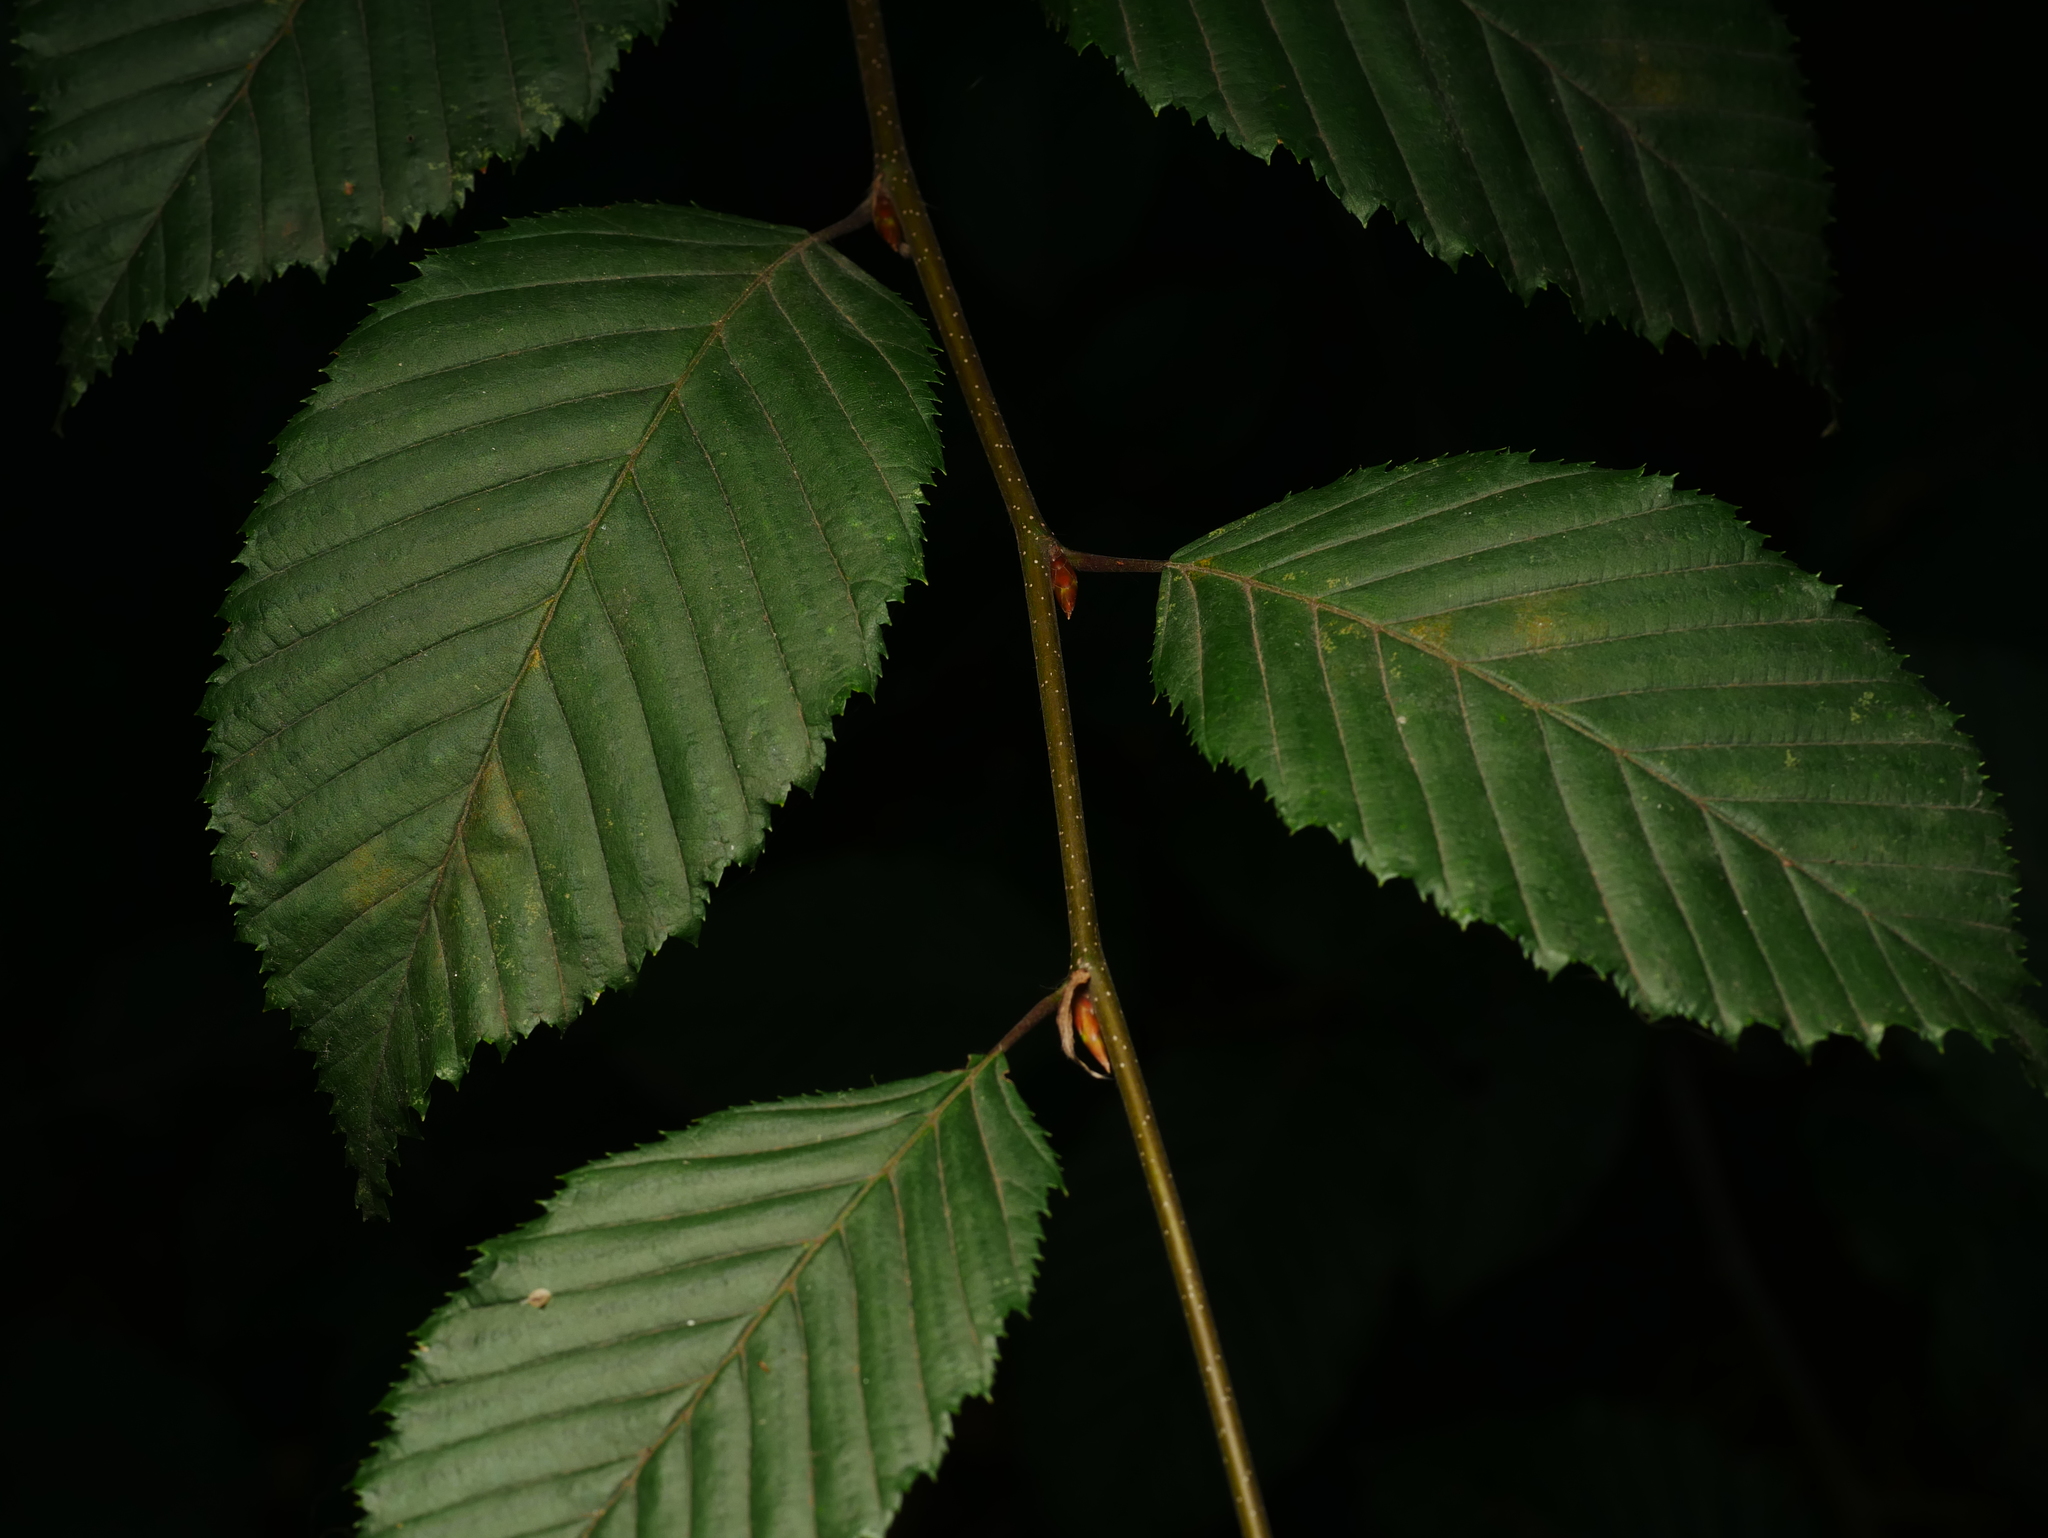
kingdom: Plantae
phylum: Tracheophyta
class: Magnoliopsida
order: Fagales
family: Betulaceae
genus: Carpinus
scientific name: Carpinus betulus
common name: Hornbeam
